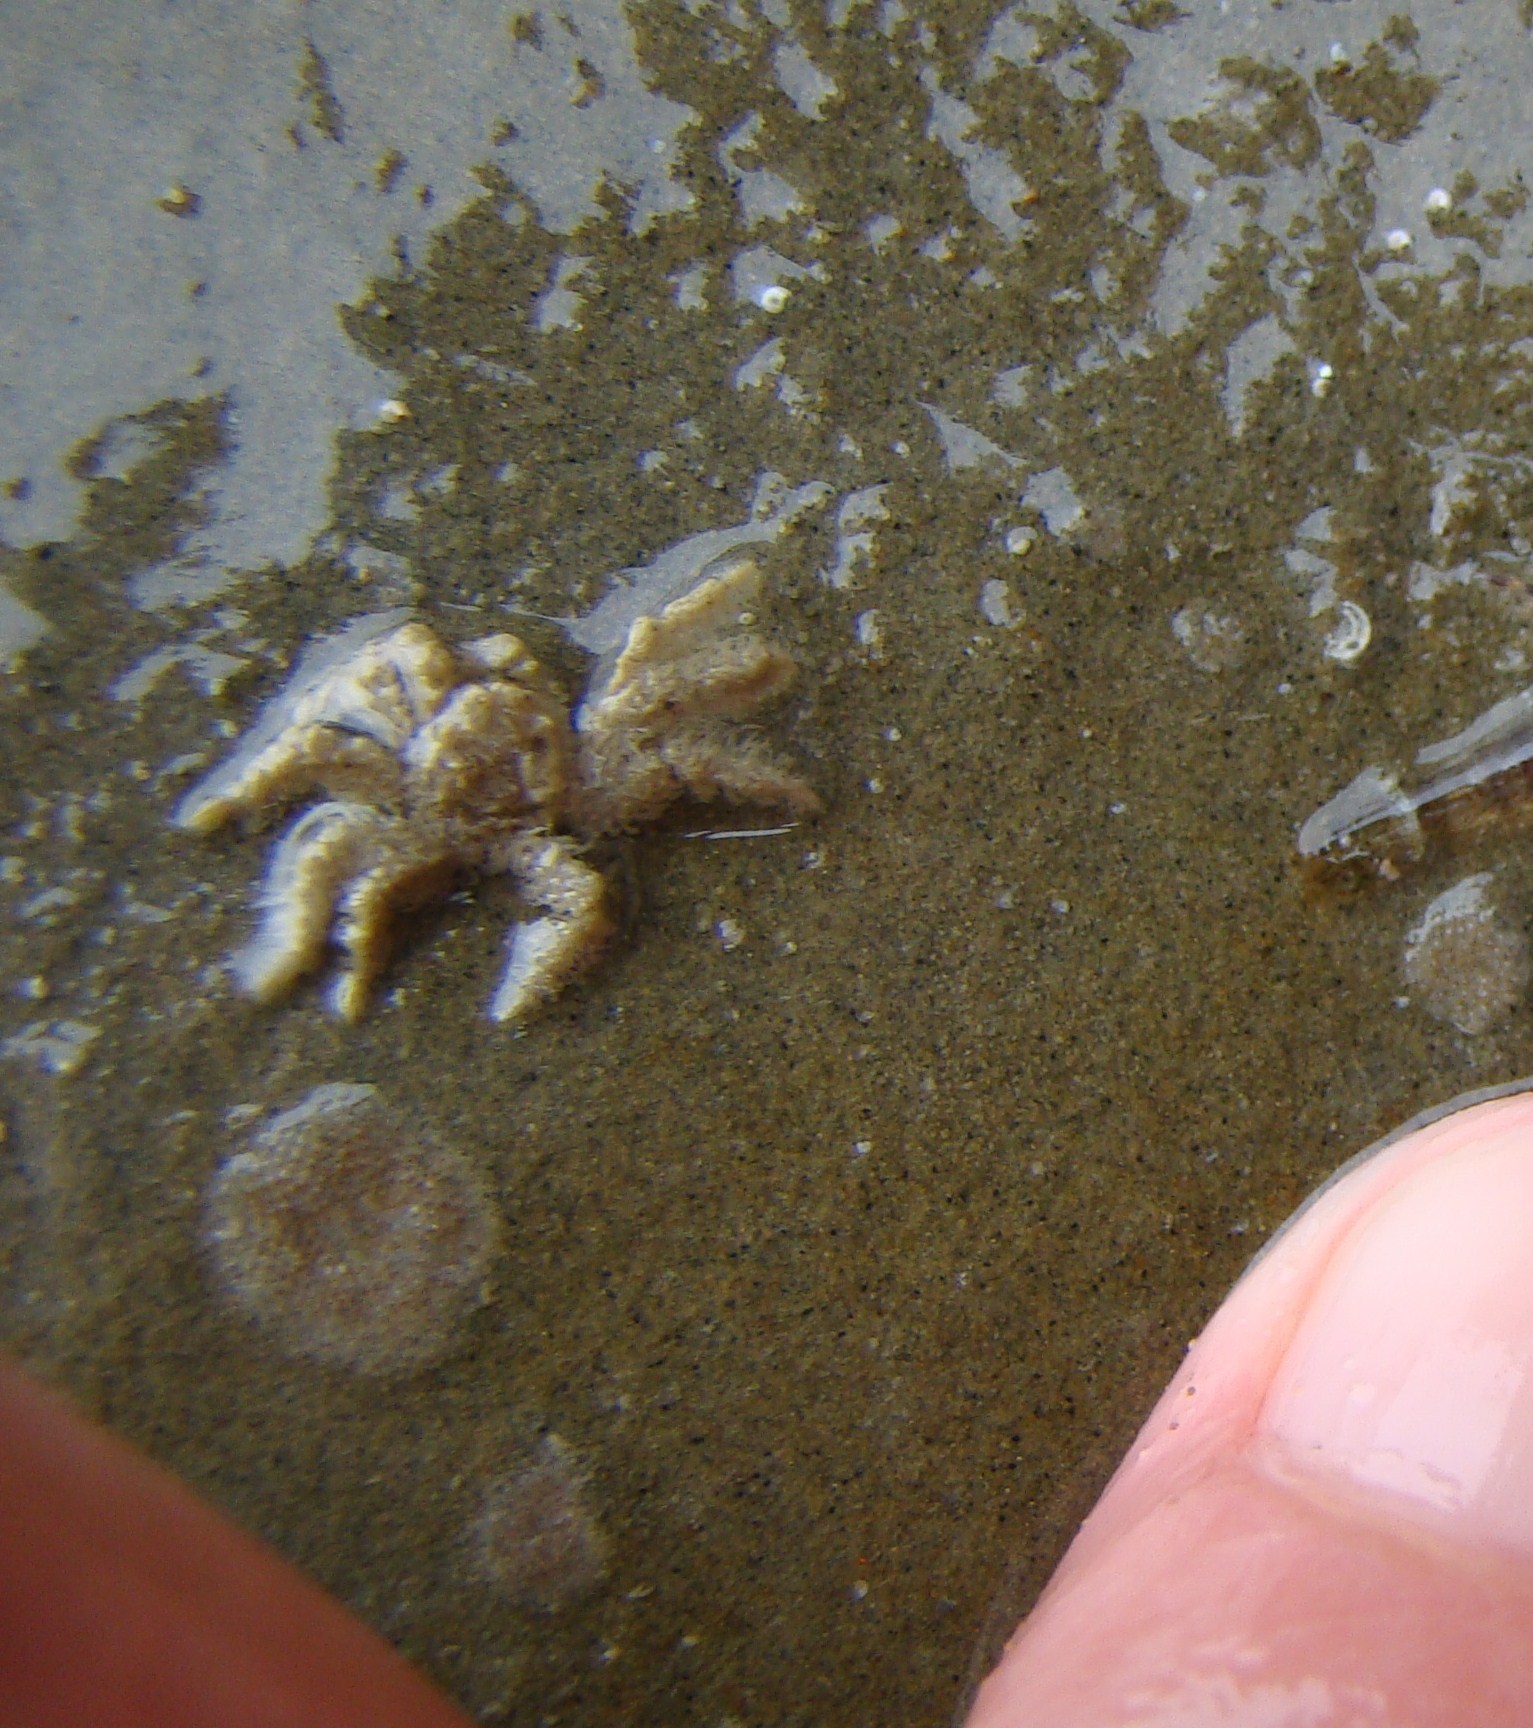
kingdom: Animalia
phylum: Arthropoda
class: Malacostraca
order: Decapoda
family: Hymenosomatidae
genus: Neohymenicus
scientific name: Neohymenicus pubescens
